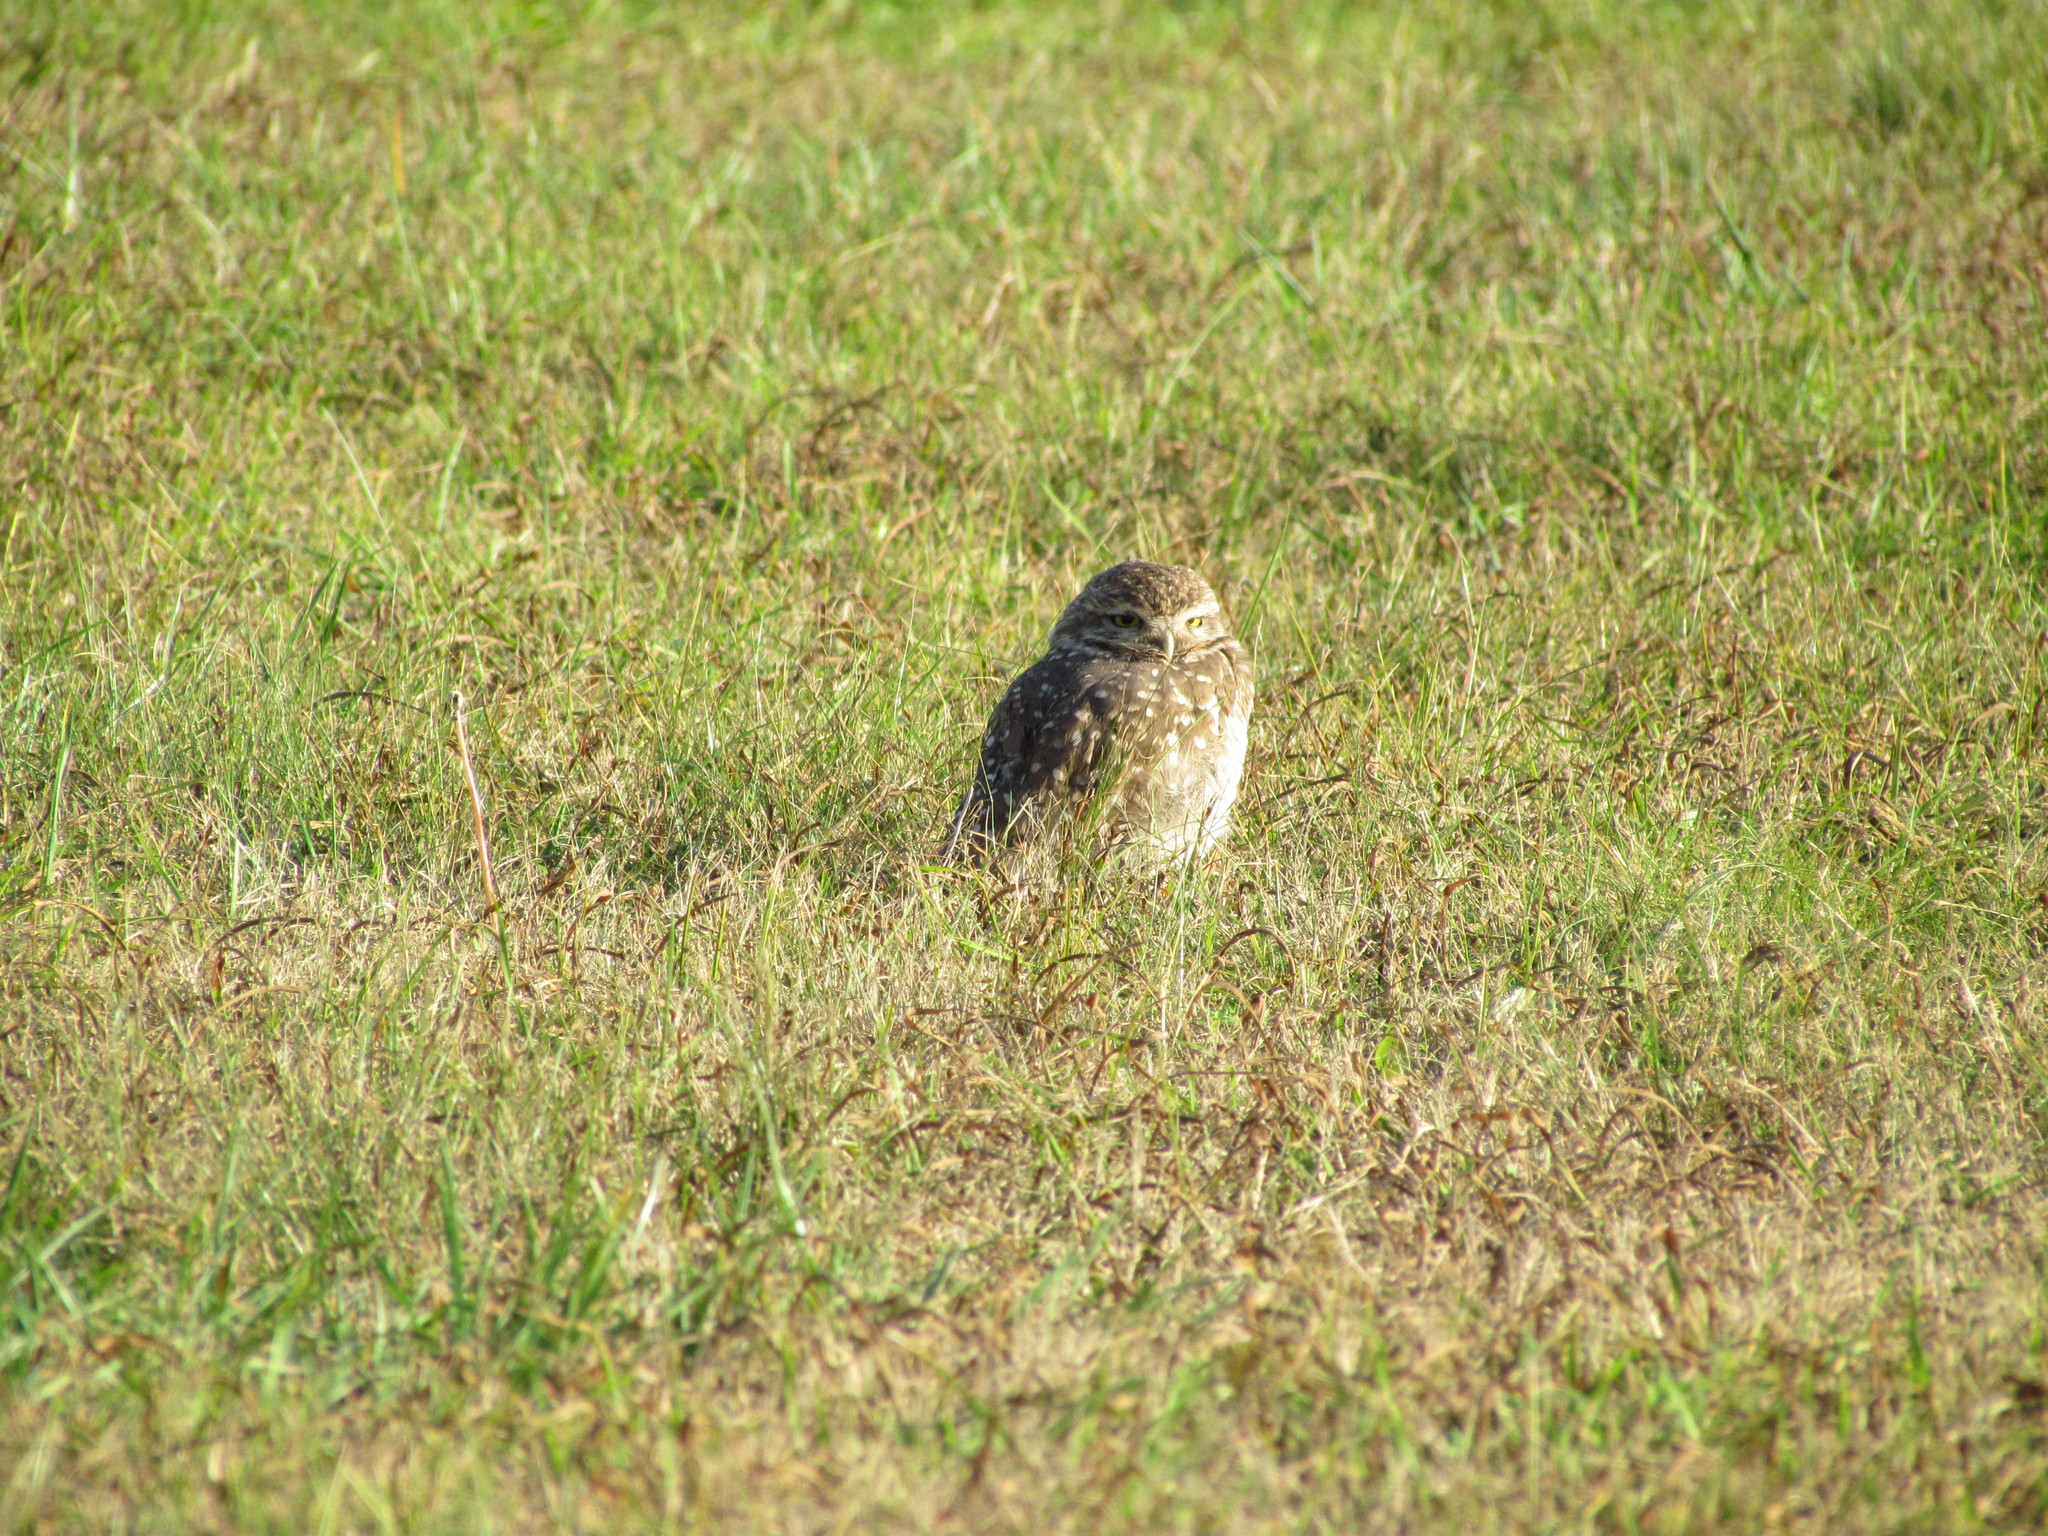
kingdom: Animalia
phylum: Chordata
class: Aves
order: Strigiformes
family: Strigidae
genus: Athene
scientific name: Athene cunicularia
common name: Burrowing owl
